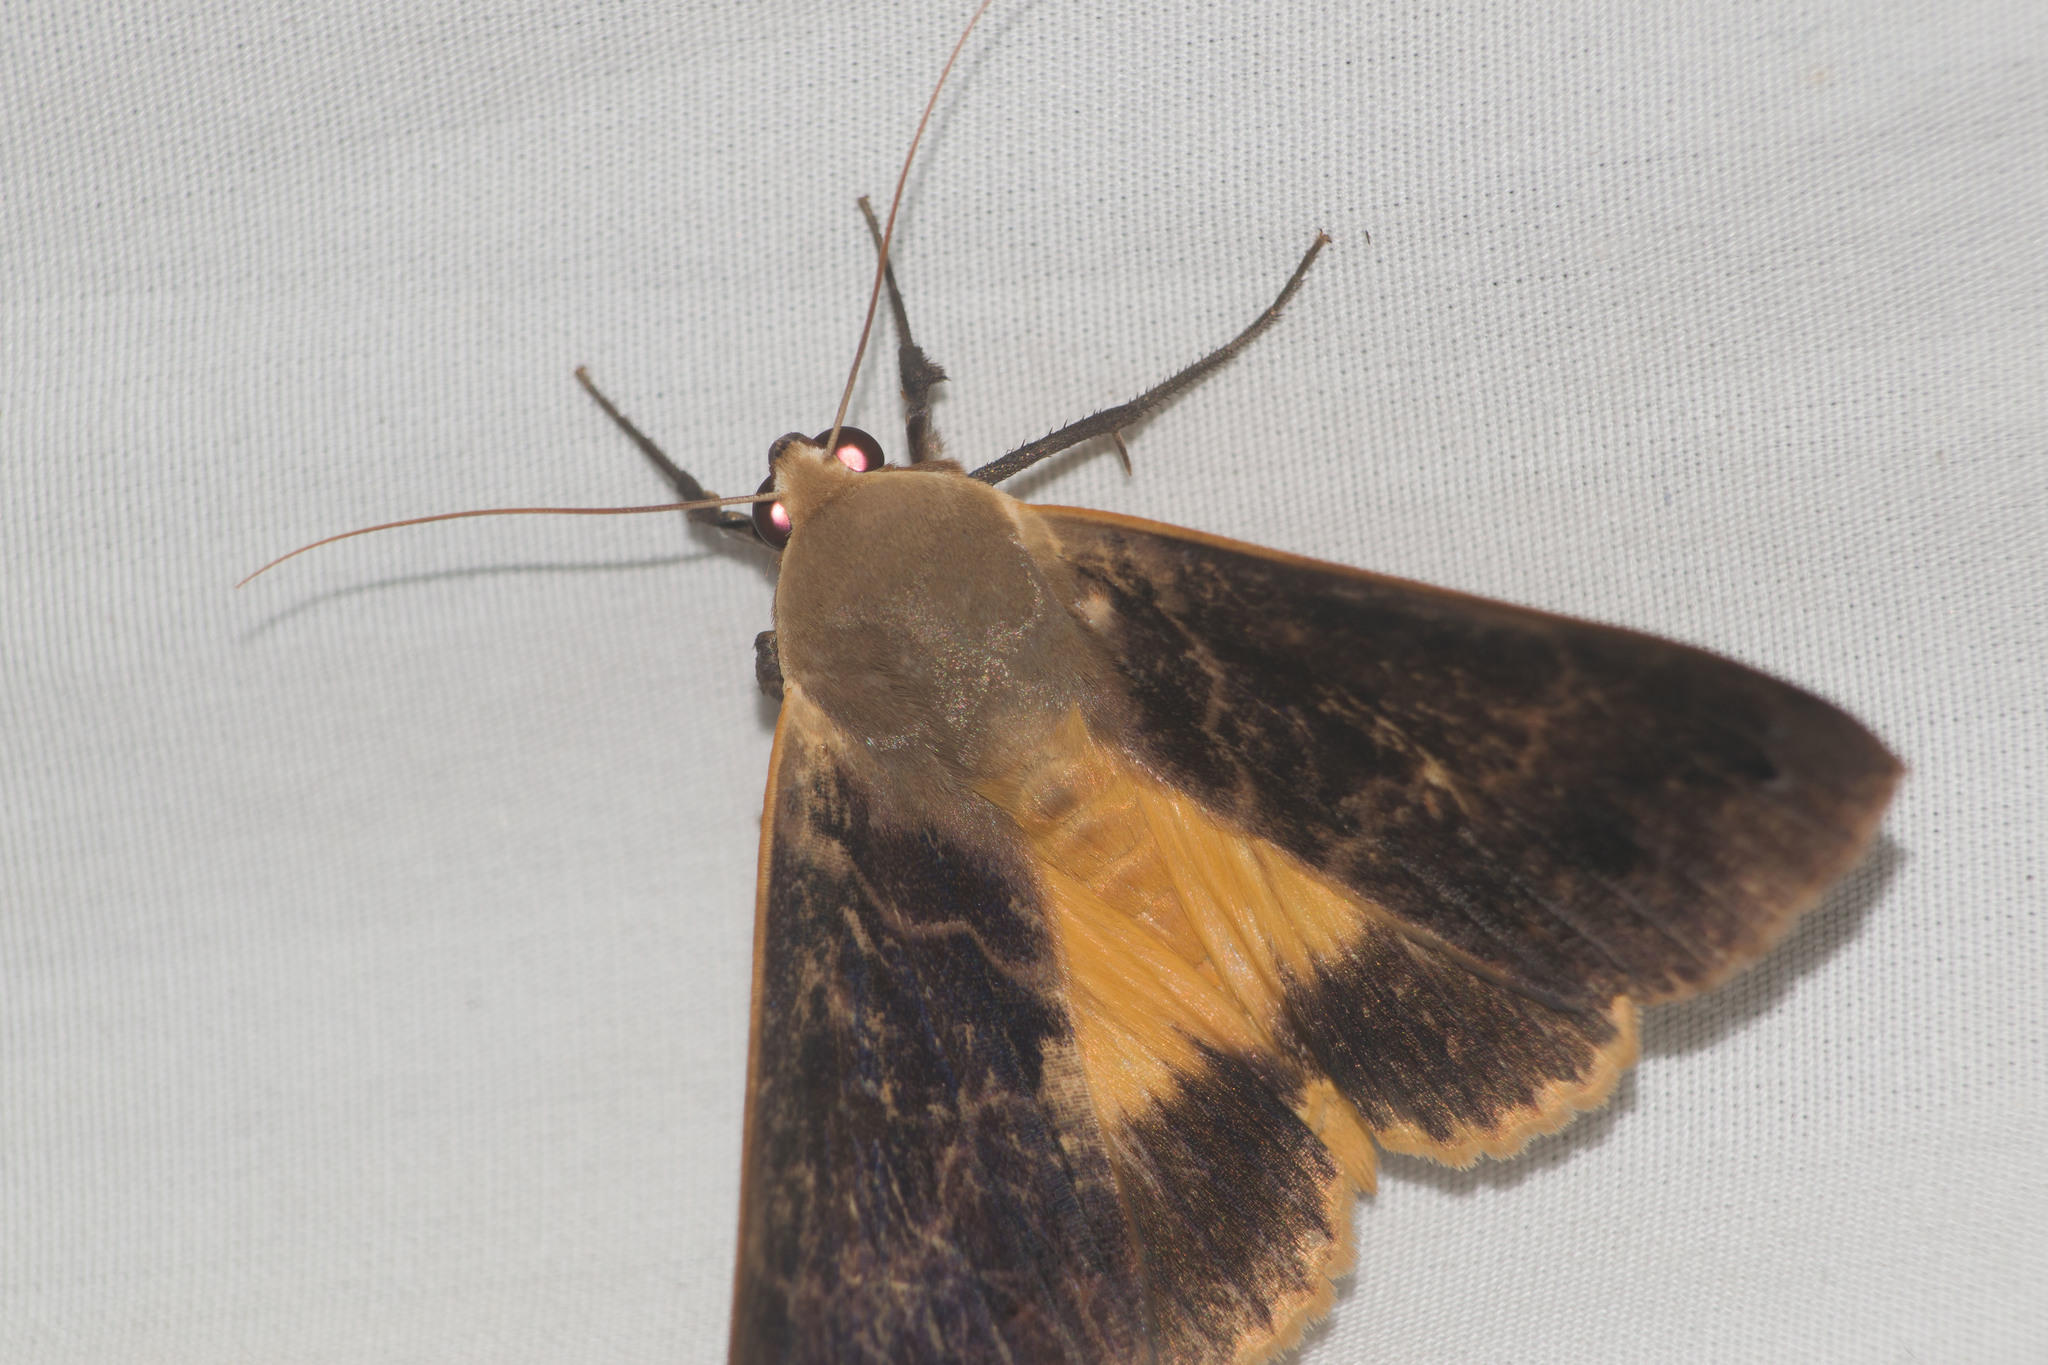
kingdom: Animalia
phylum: Arthropoda
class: Insecta
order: Lepidoptera
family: Erebidae
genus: Ophiusa
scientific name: Ophiusa disjungens
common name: Moth
